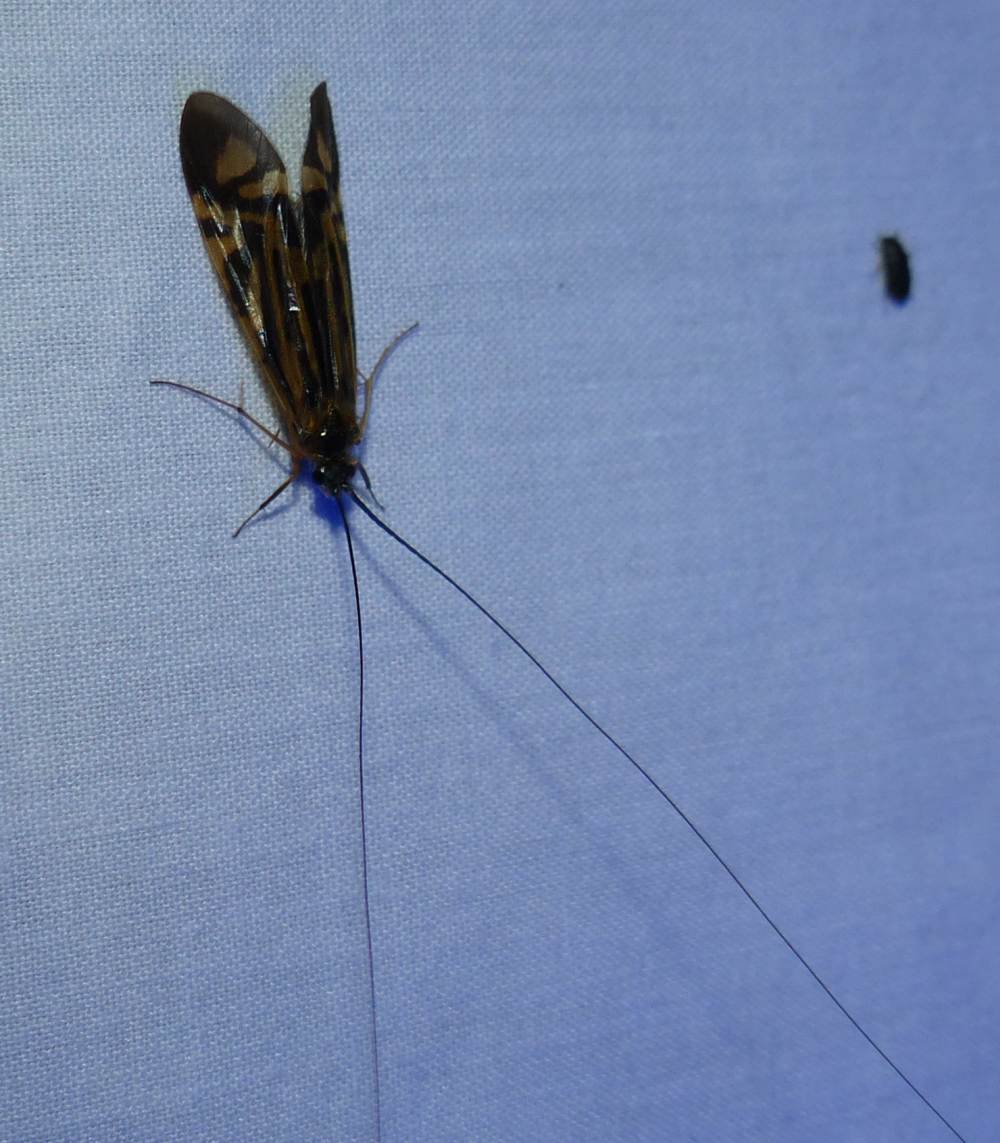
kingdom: Animalia
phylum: Arthropoda
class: Insecta
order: Trichoptera
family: Hydropsychidae
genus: Macrostemum
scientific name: Macrostemum zebratum
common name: Zebra caddisfly
